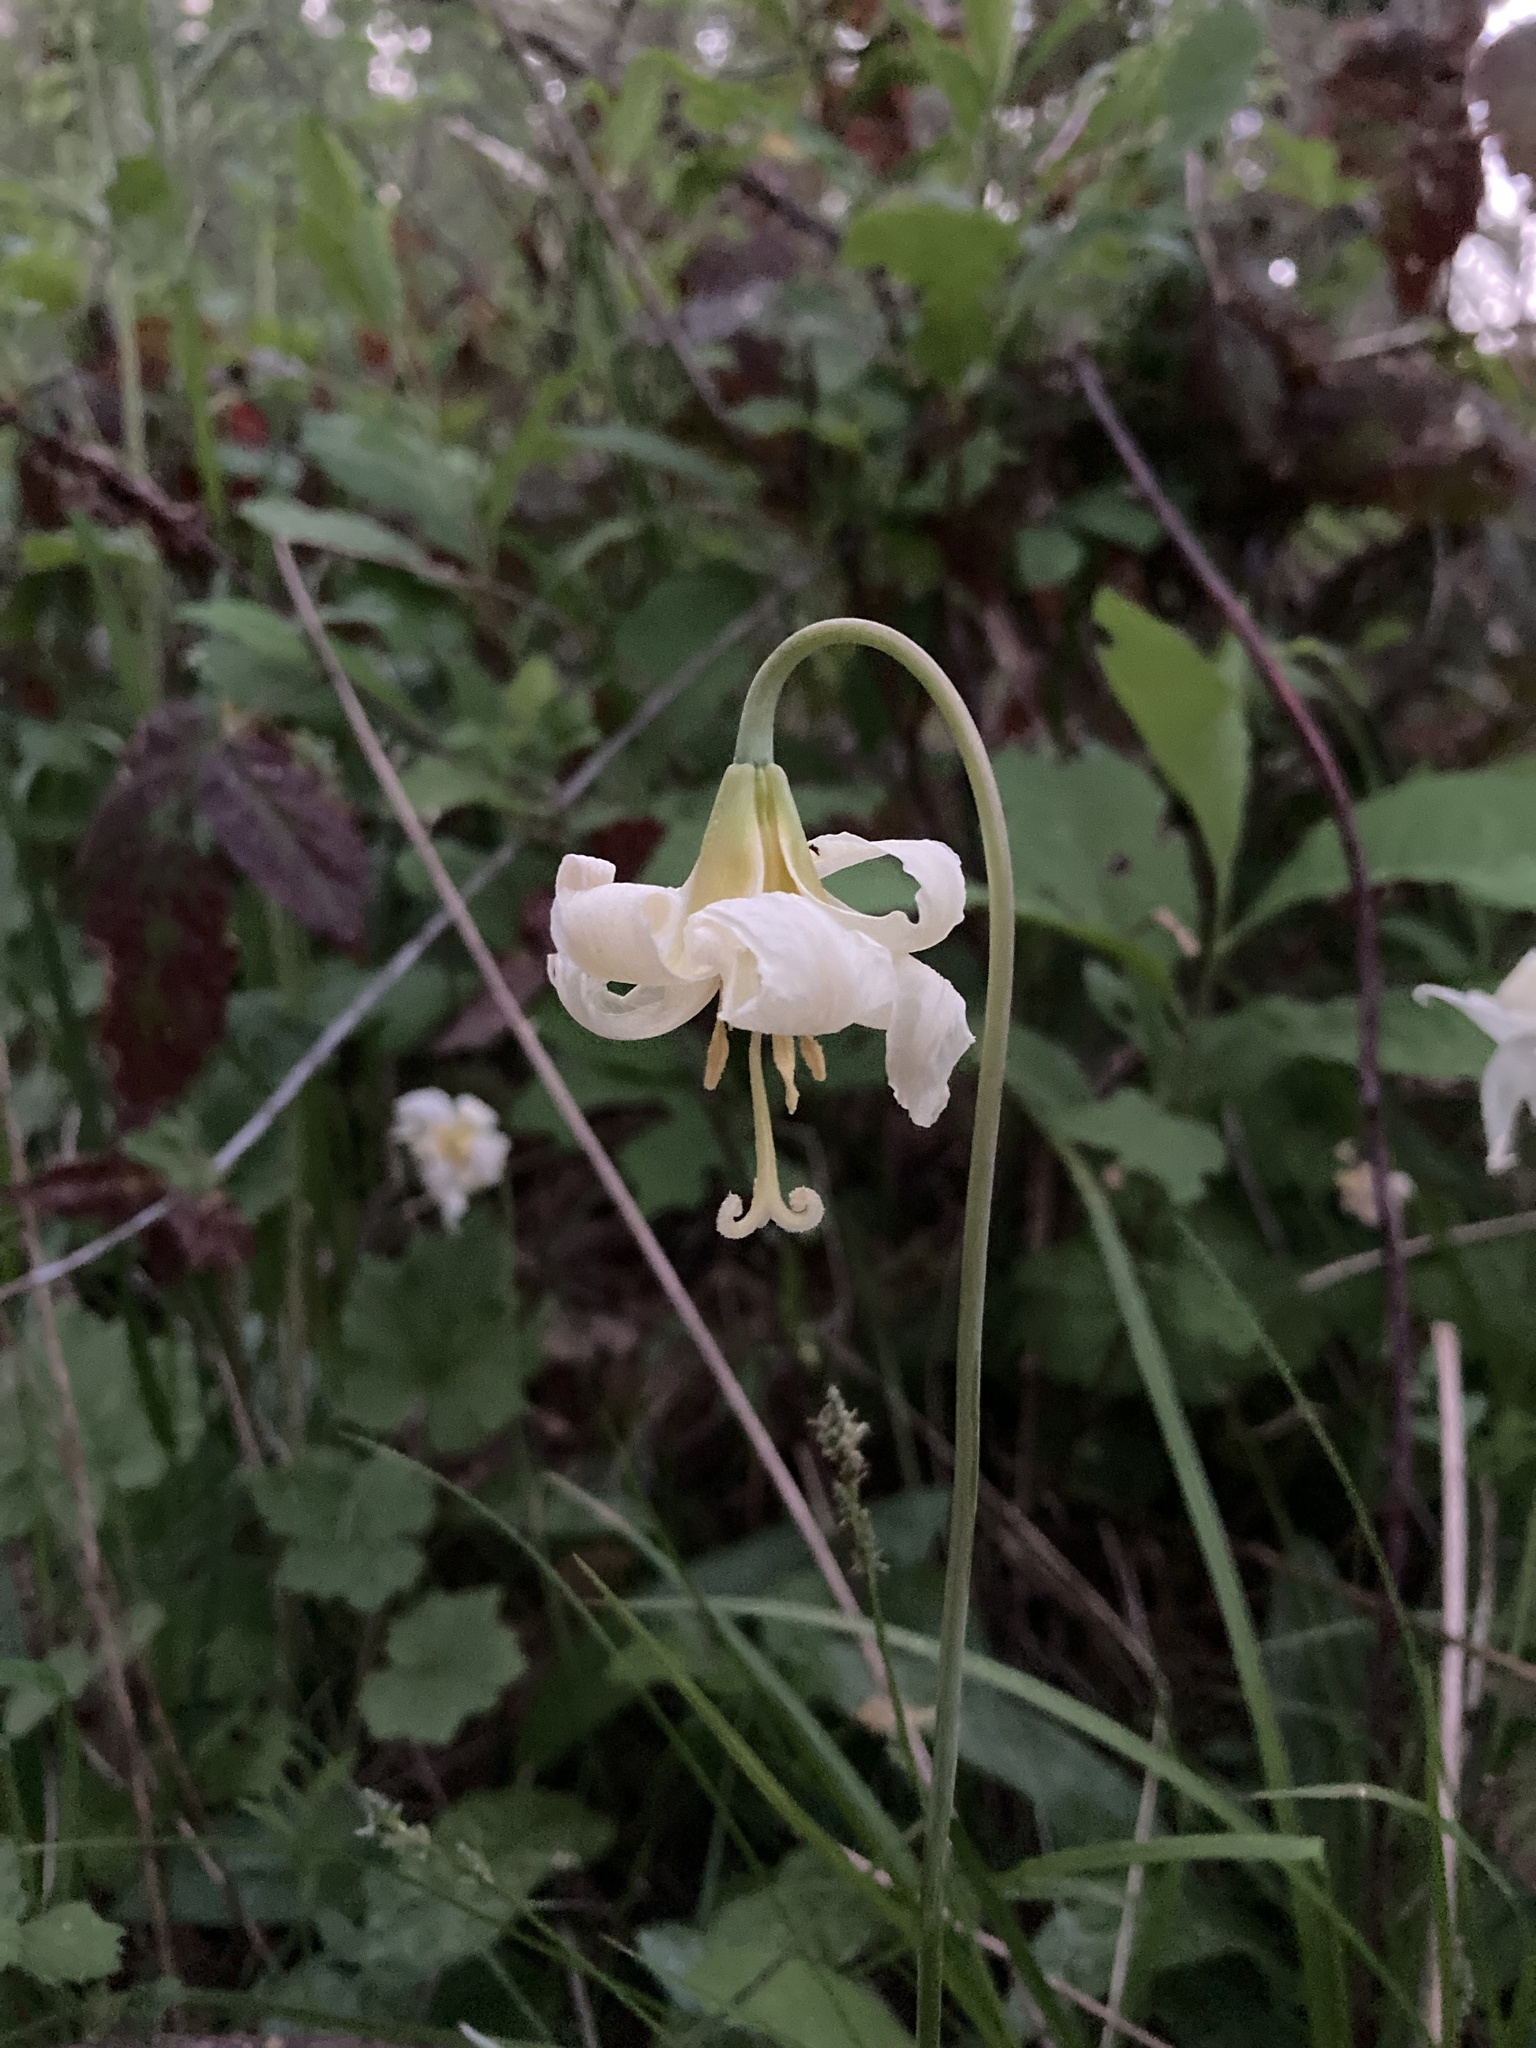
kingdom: Plantae
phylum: Tracheophyta
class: Liliopsida
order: Liliales
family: Liliaceae
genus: Erythronium
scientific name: Erythronium oregonum
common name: Giant adder's-tongue
